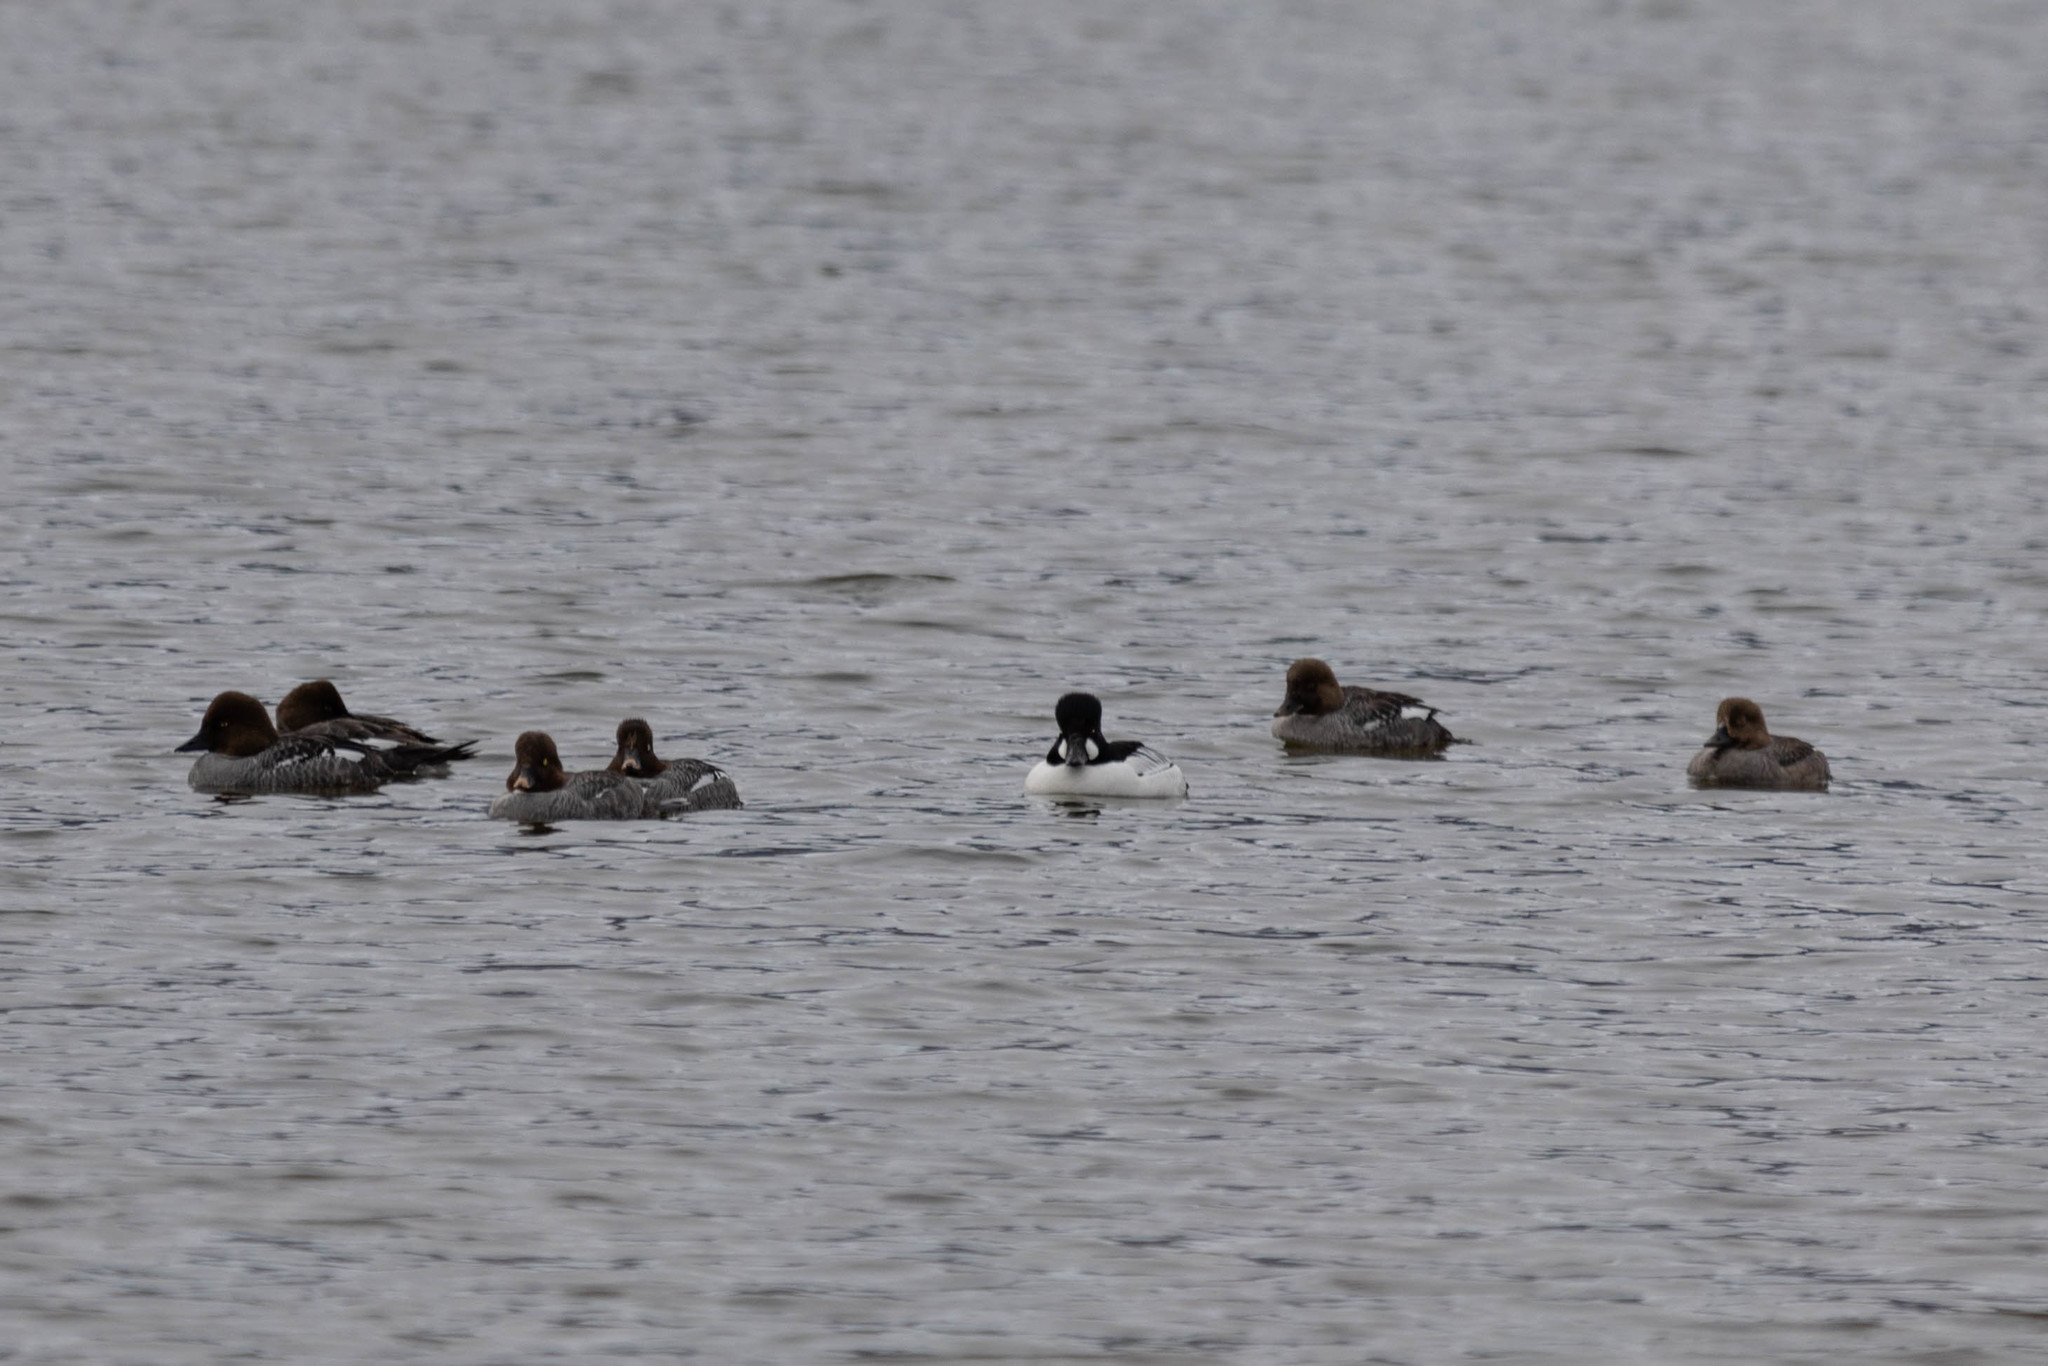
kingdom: Animalia
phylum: Chordata
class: Aves
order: Anseriformes
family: Anatidae
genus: Bucephala
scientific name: Bucephala clangula
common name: Common goldeneye
